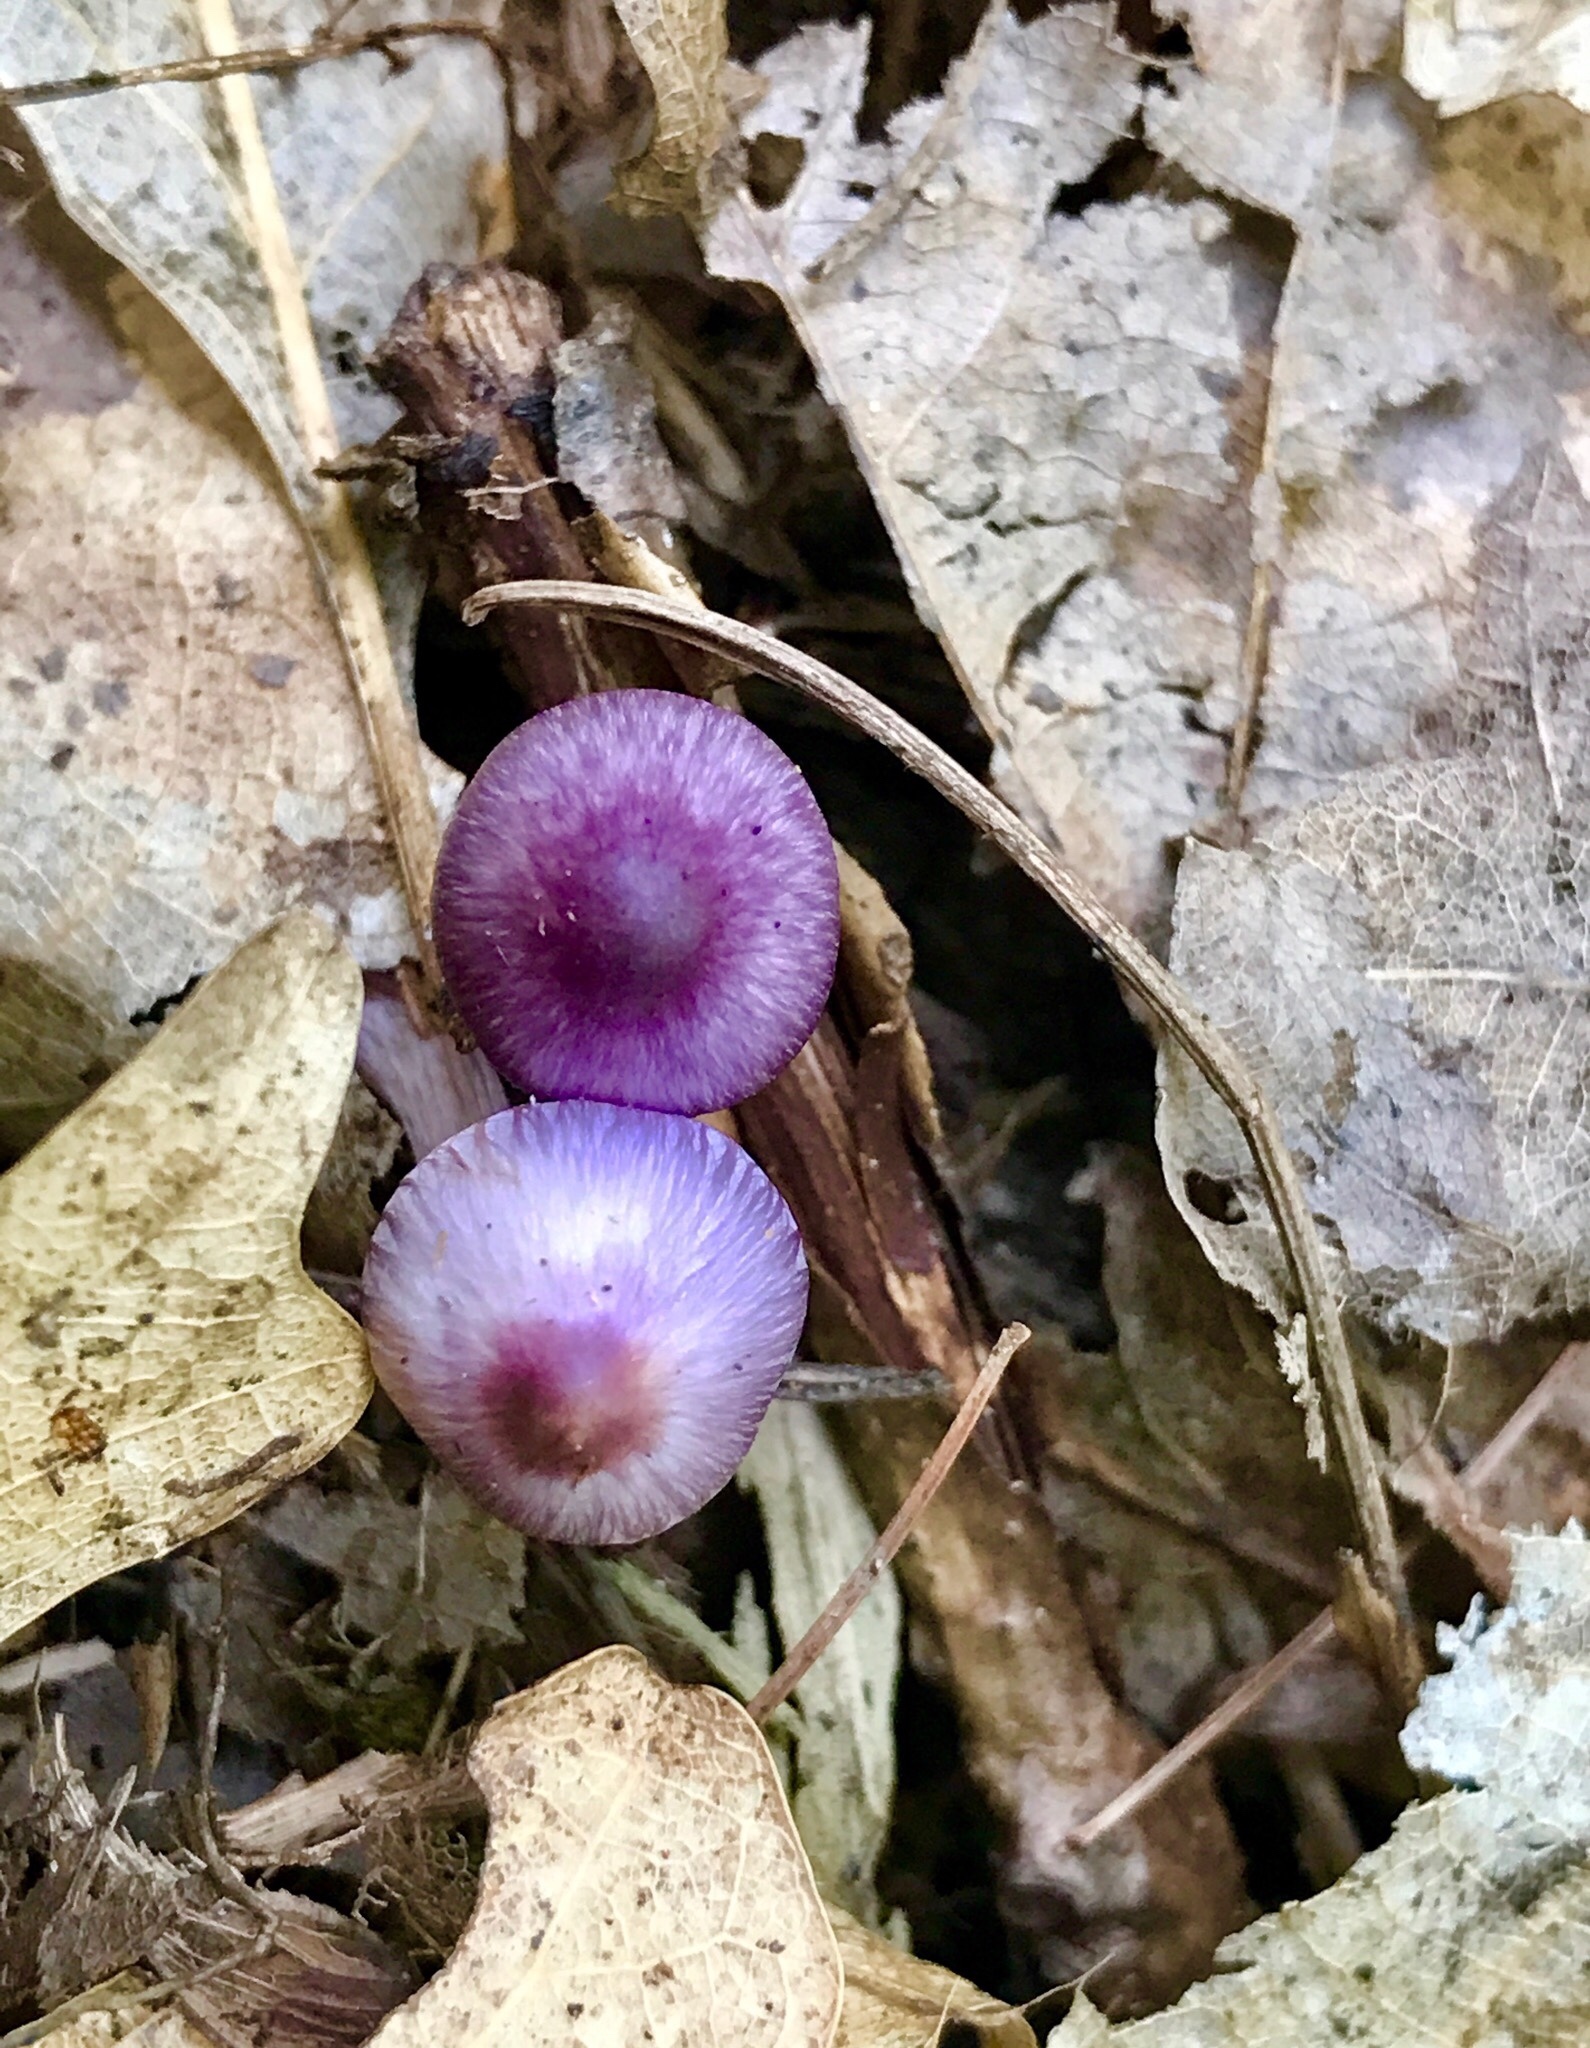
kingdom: Fungi
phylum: Basidiomycota
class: Agaricomycetes
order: Agaricales
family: Inocybaceae
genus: Inocybe
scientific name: Inocybe geophylla
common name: White fibrecap
